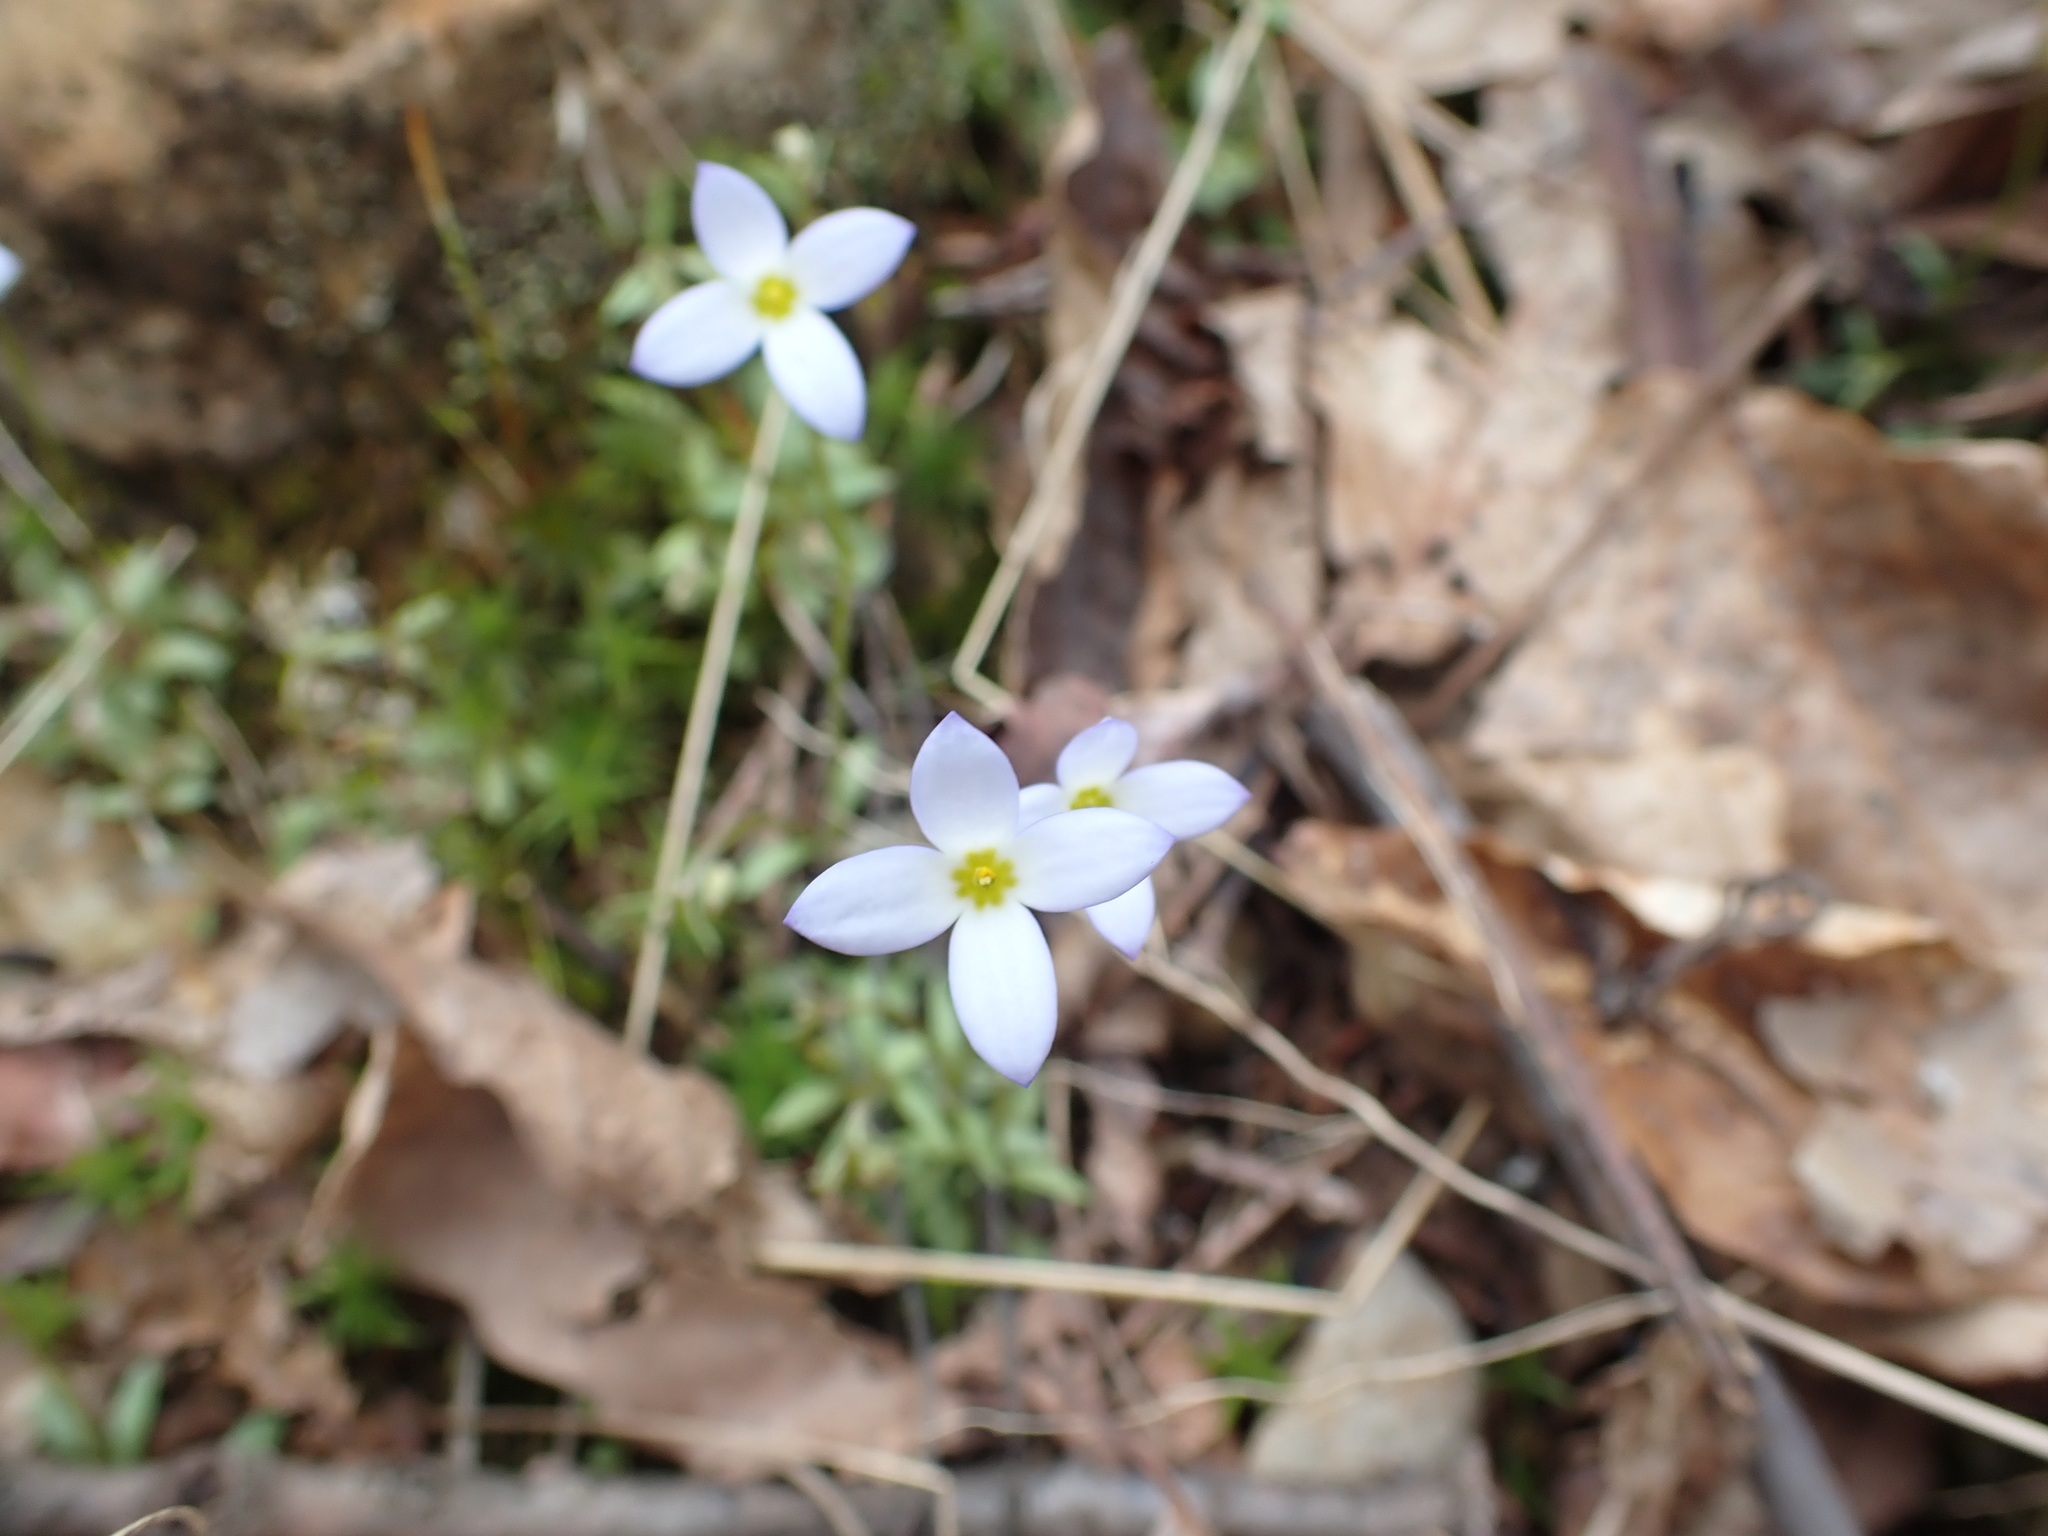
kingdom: Plantae
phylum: Tracheophyta
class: Magnoliopsida
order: Gentianales
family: Rubiaceae
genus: Houstonia
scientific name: Houstonia caerulea
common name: Bluets
